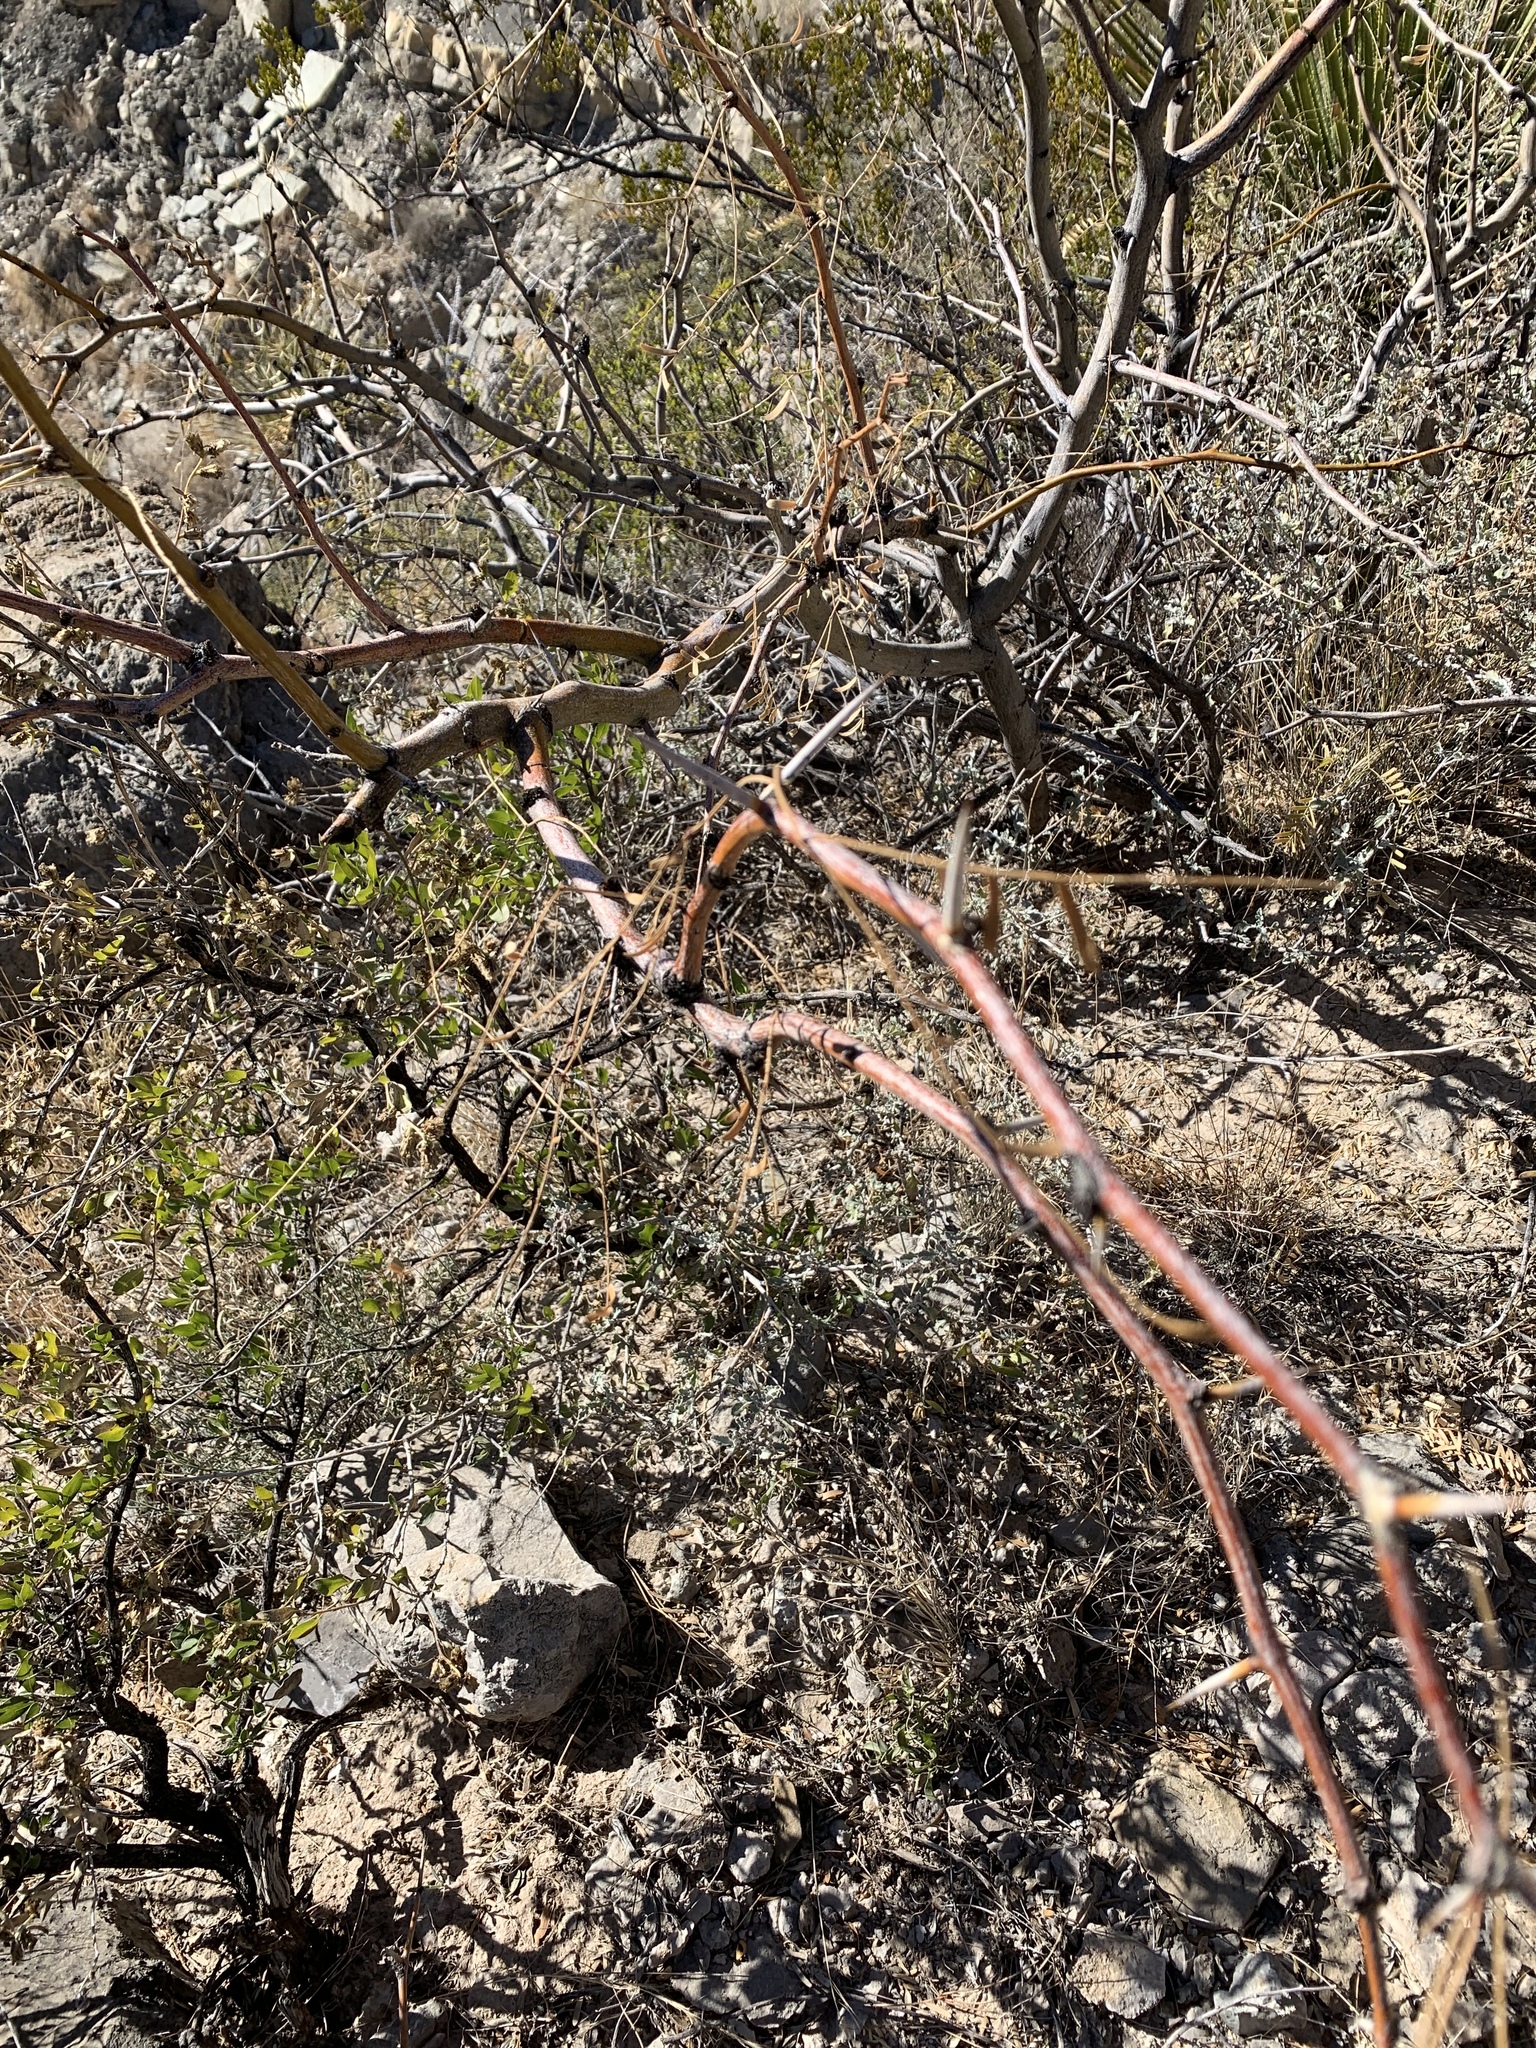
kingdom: Plantae
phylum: Tracheophyta
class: Magnoliopsida
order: Fabales
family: Fabaceae
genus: Prosopis
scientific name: Prosopis glandulosa
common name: Honey mesquite
